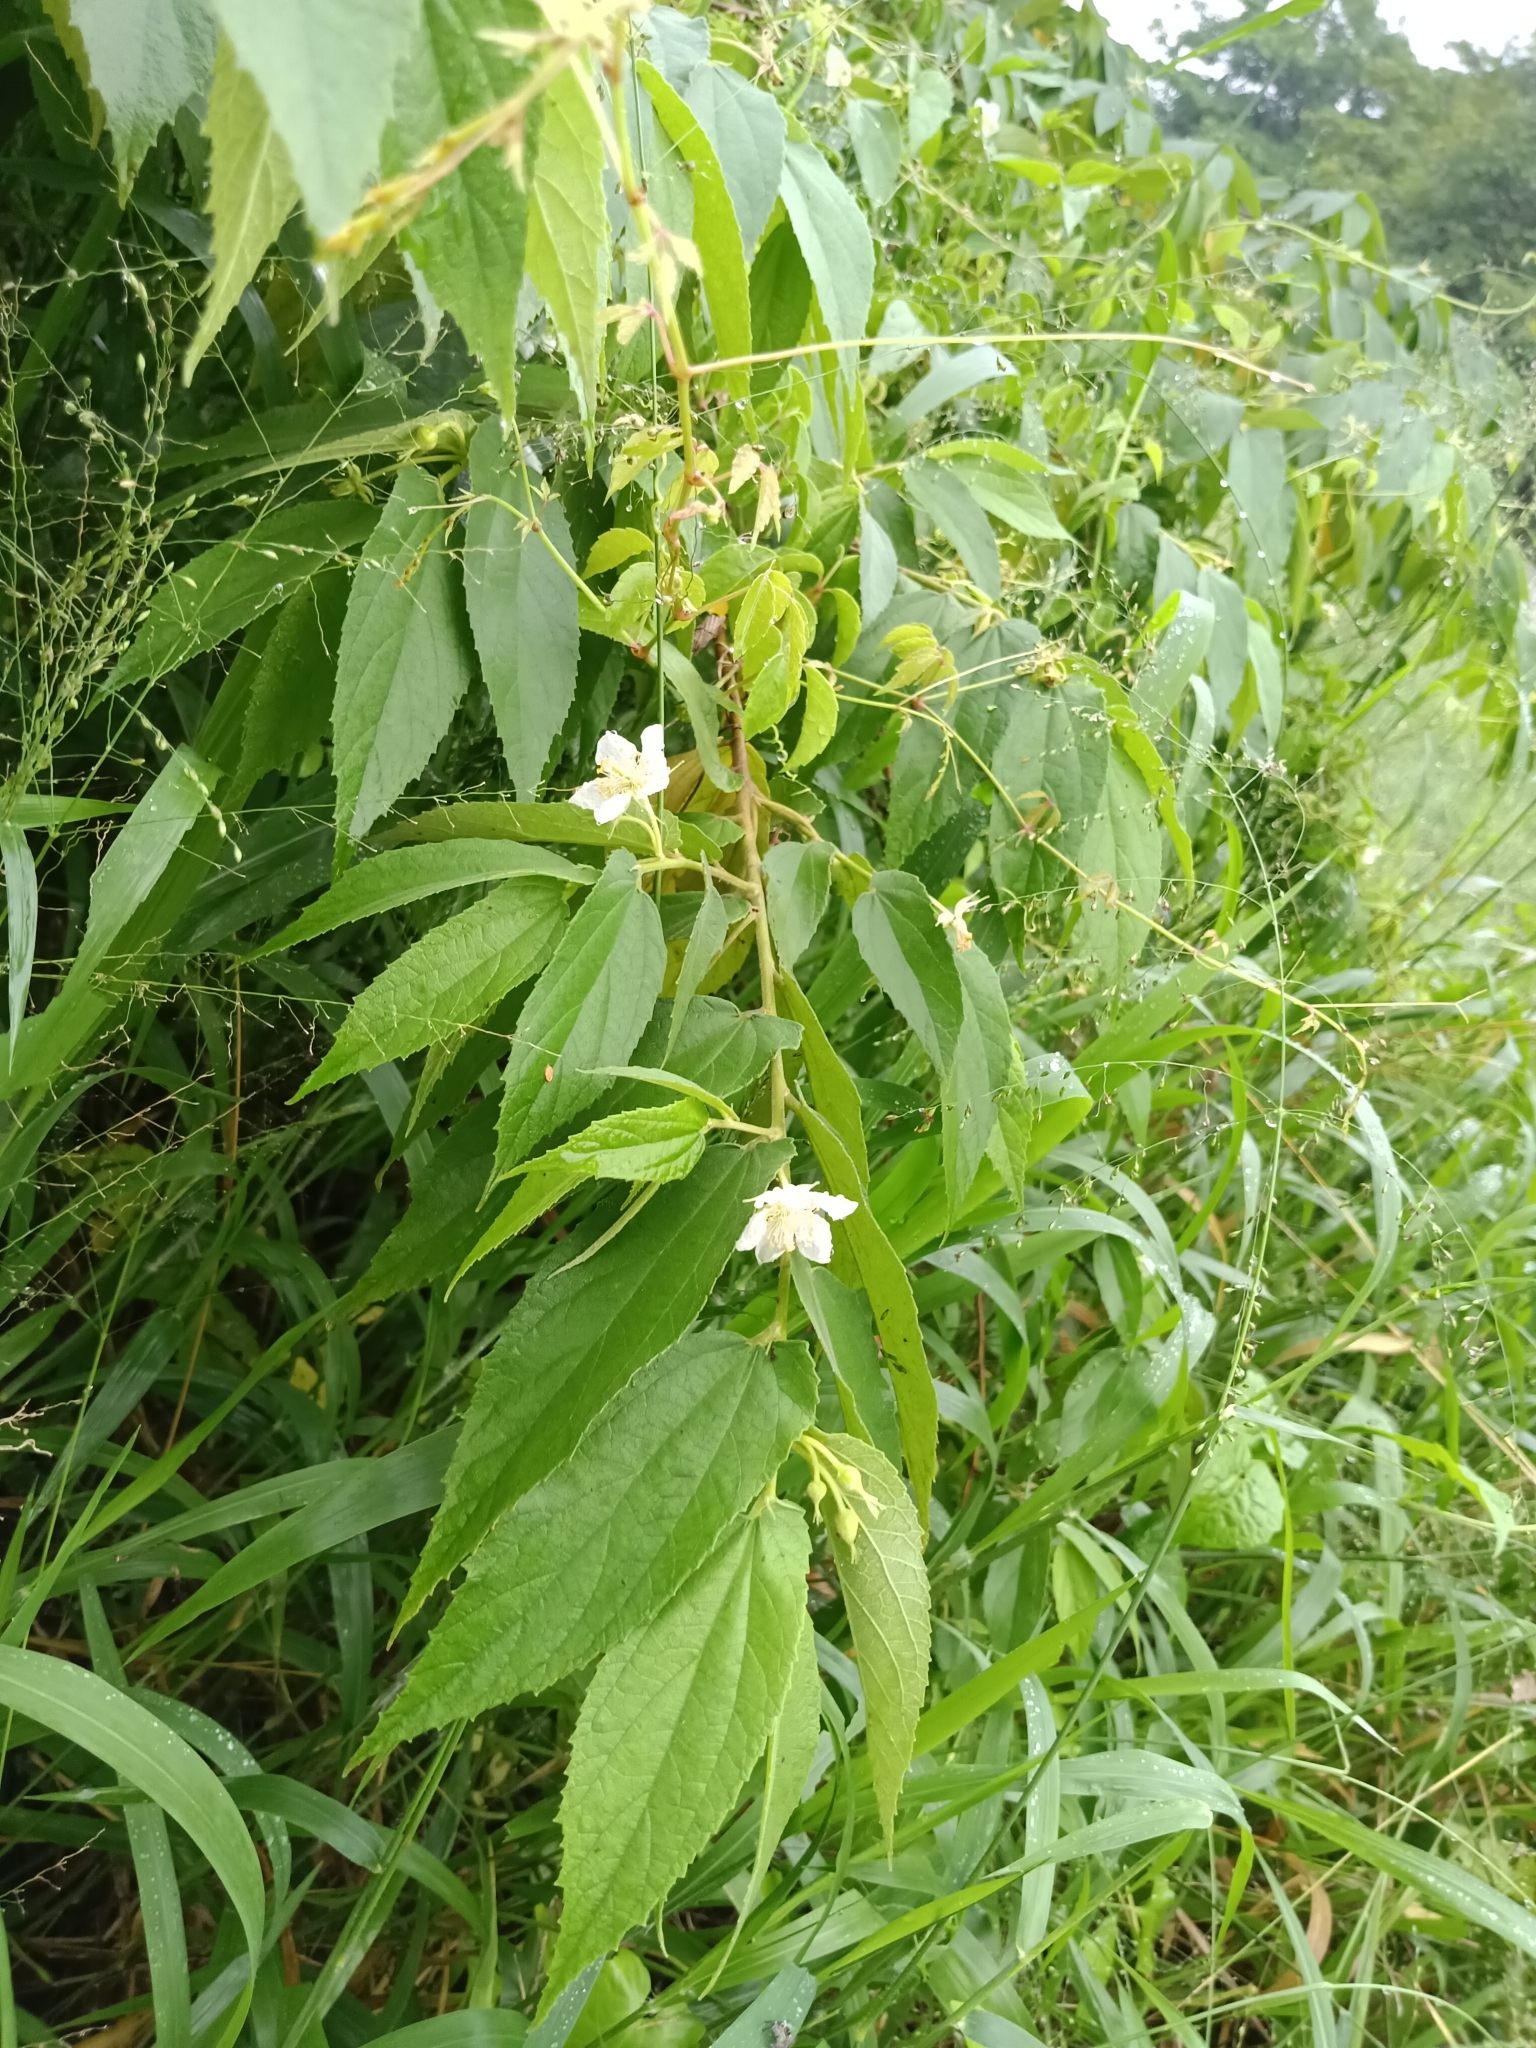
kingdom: Plantae
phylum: Tracheophyta
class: Magnoliopsida
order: Malvales
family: Muntingiaceae
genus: Muntingia
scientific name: Muntingia calabura
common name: Strawberrytree
